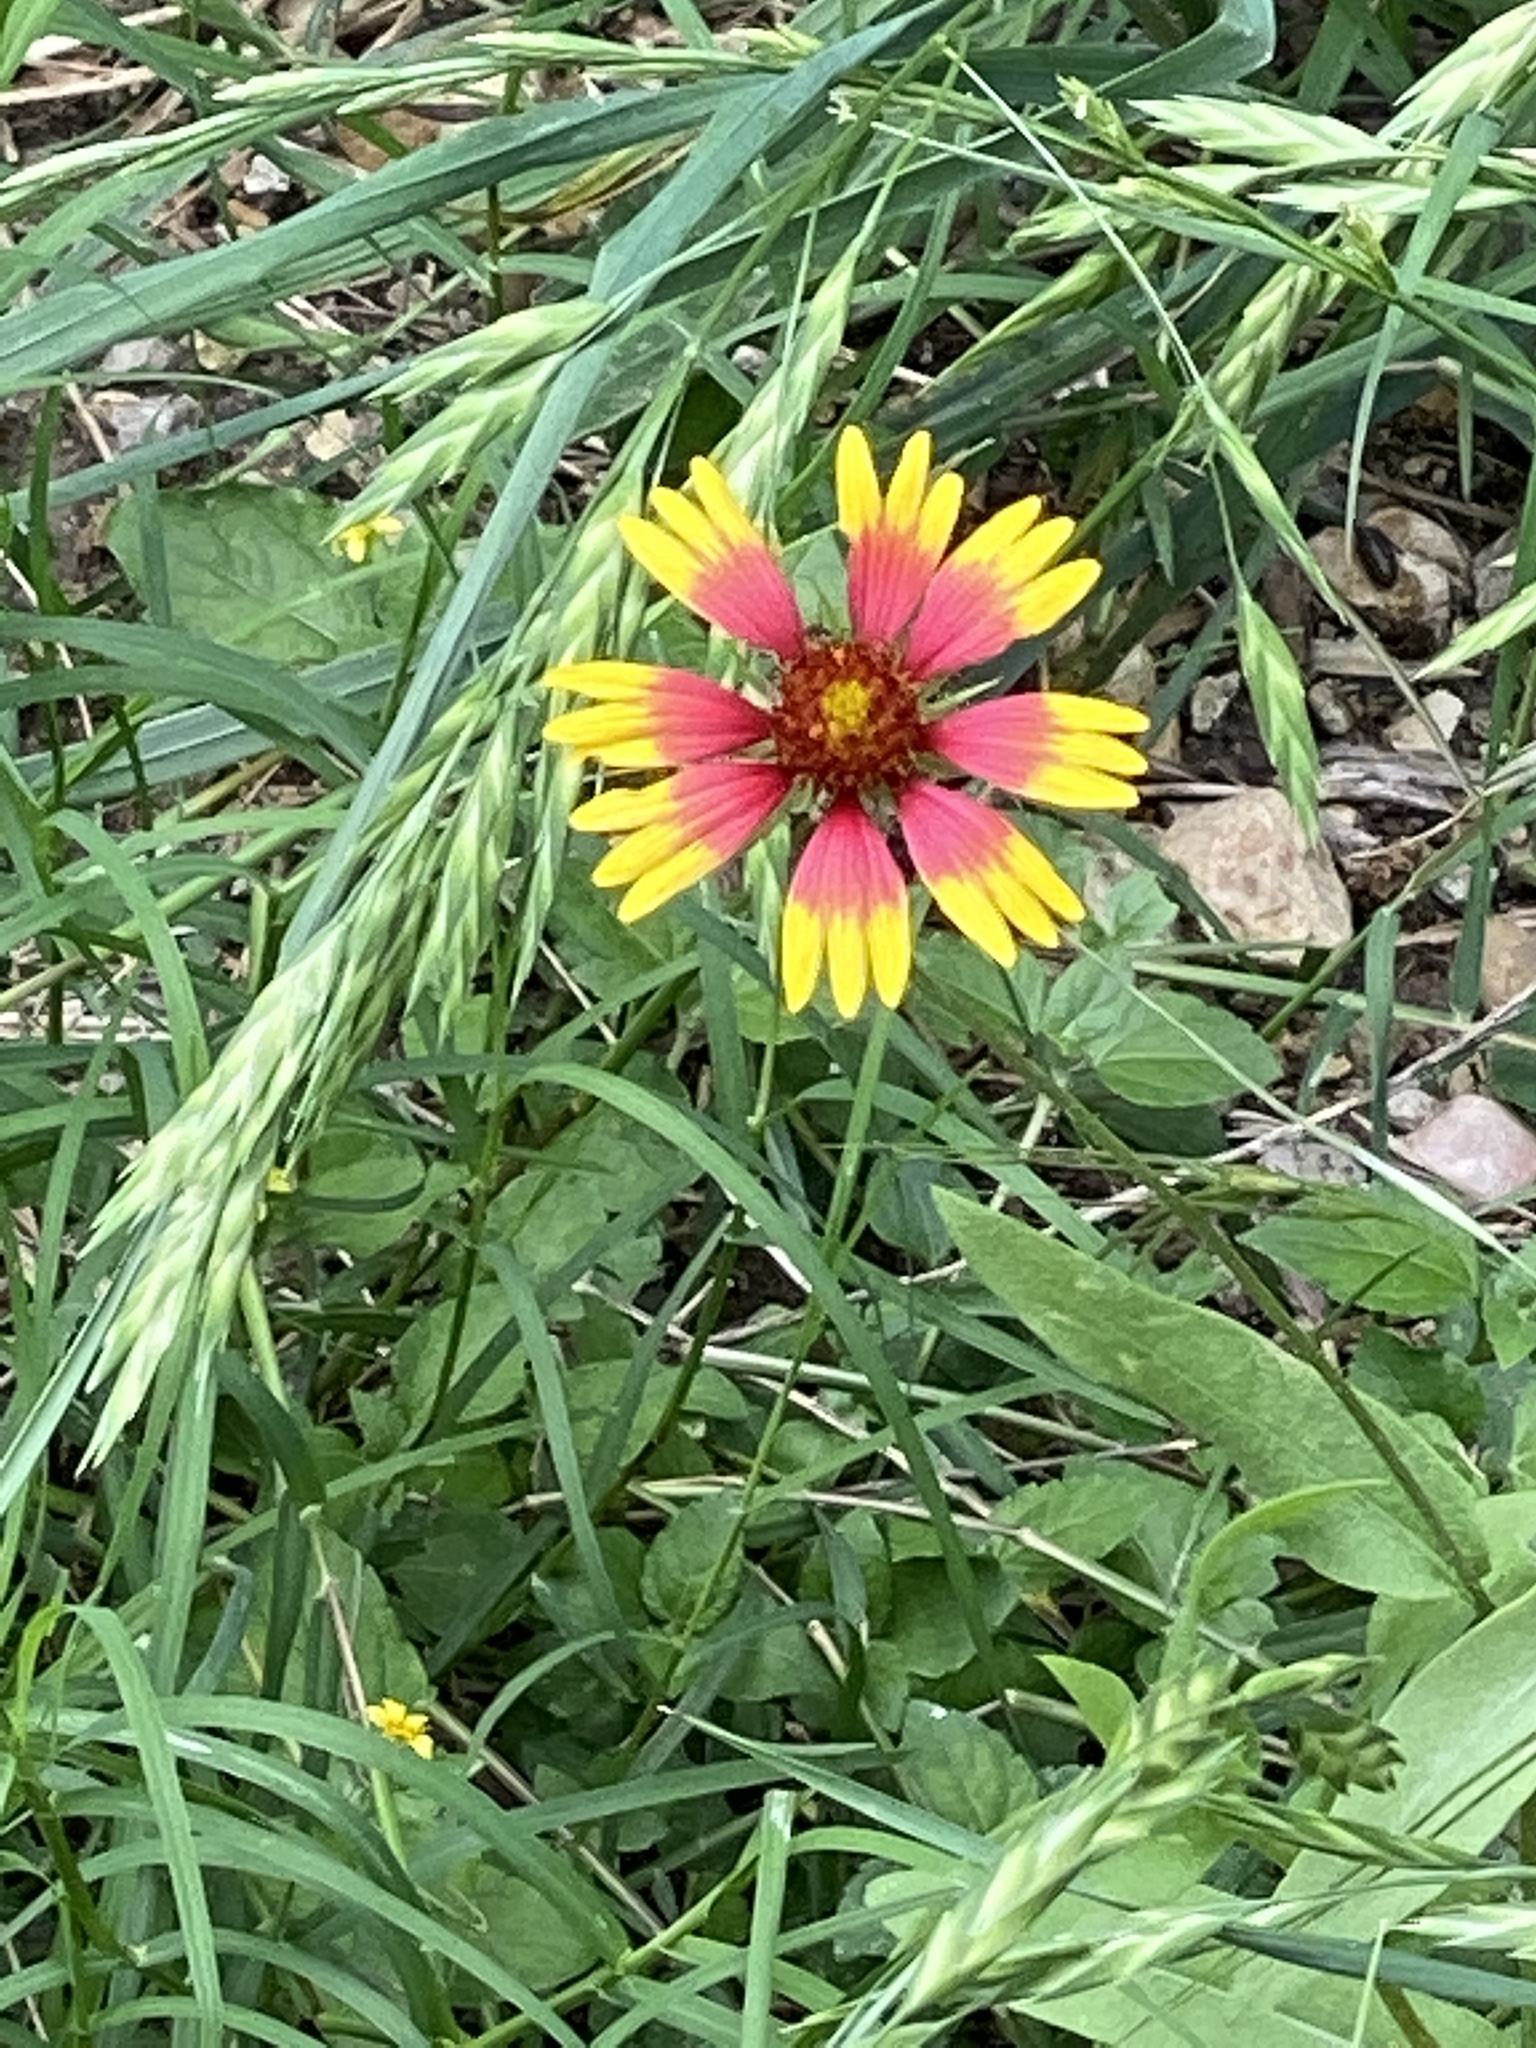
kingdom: Plantae
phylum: Tracheophyta
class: Magnoliopsida
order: Asterales
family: Asteraceae
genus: Gaillardia
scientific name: Gaillardia pulchella
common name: Firewheel
